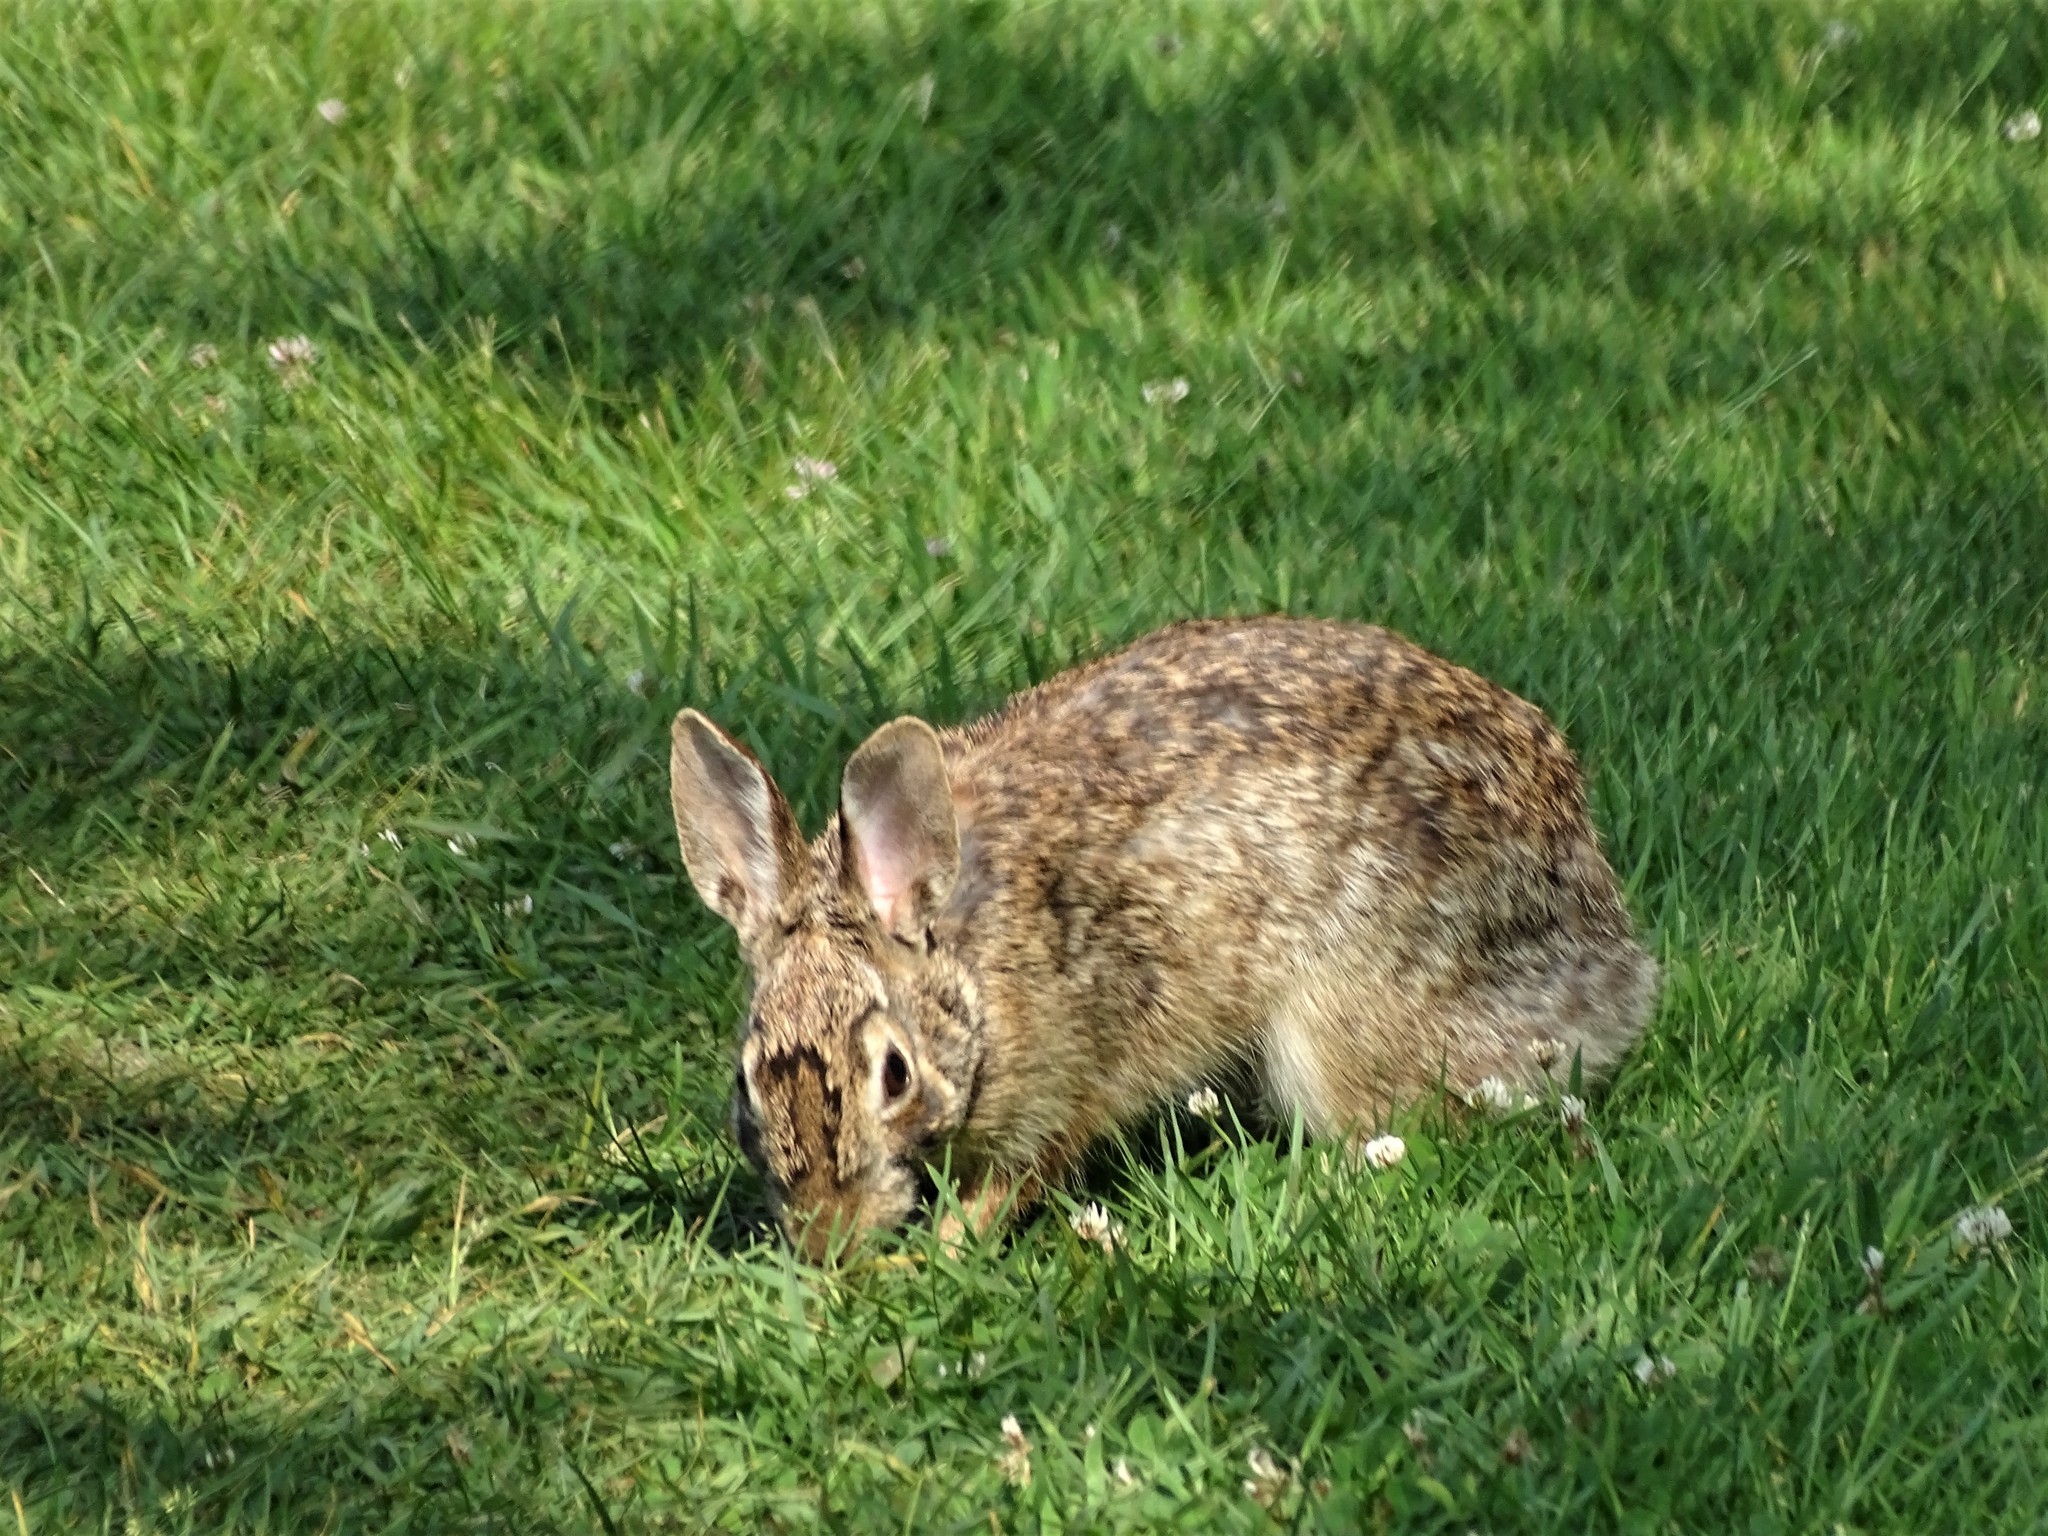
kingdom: Animalia
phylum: Chordata
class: Mammalia
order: Lagomorpha
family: Leporidae
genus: Sylvilagus
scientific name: Sylvilagus floridanus
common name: Eastern cottontail
